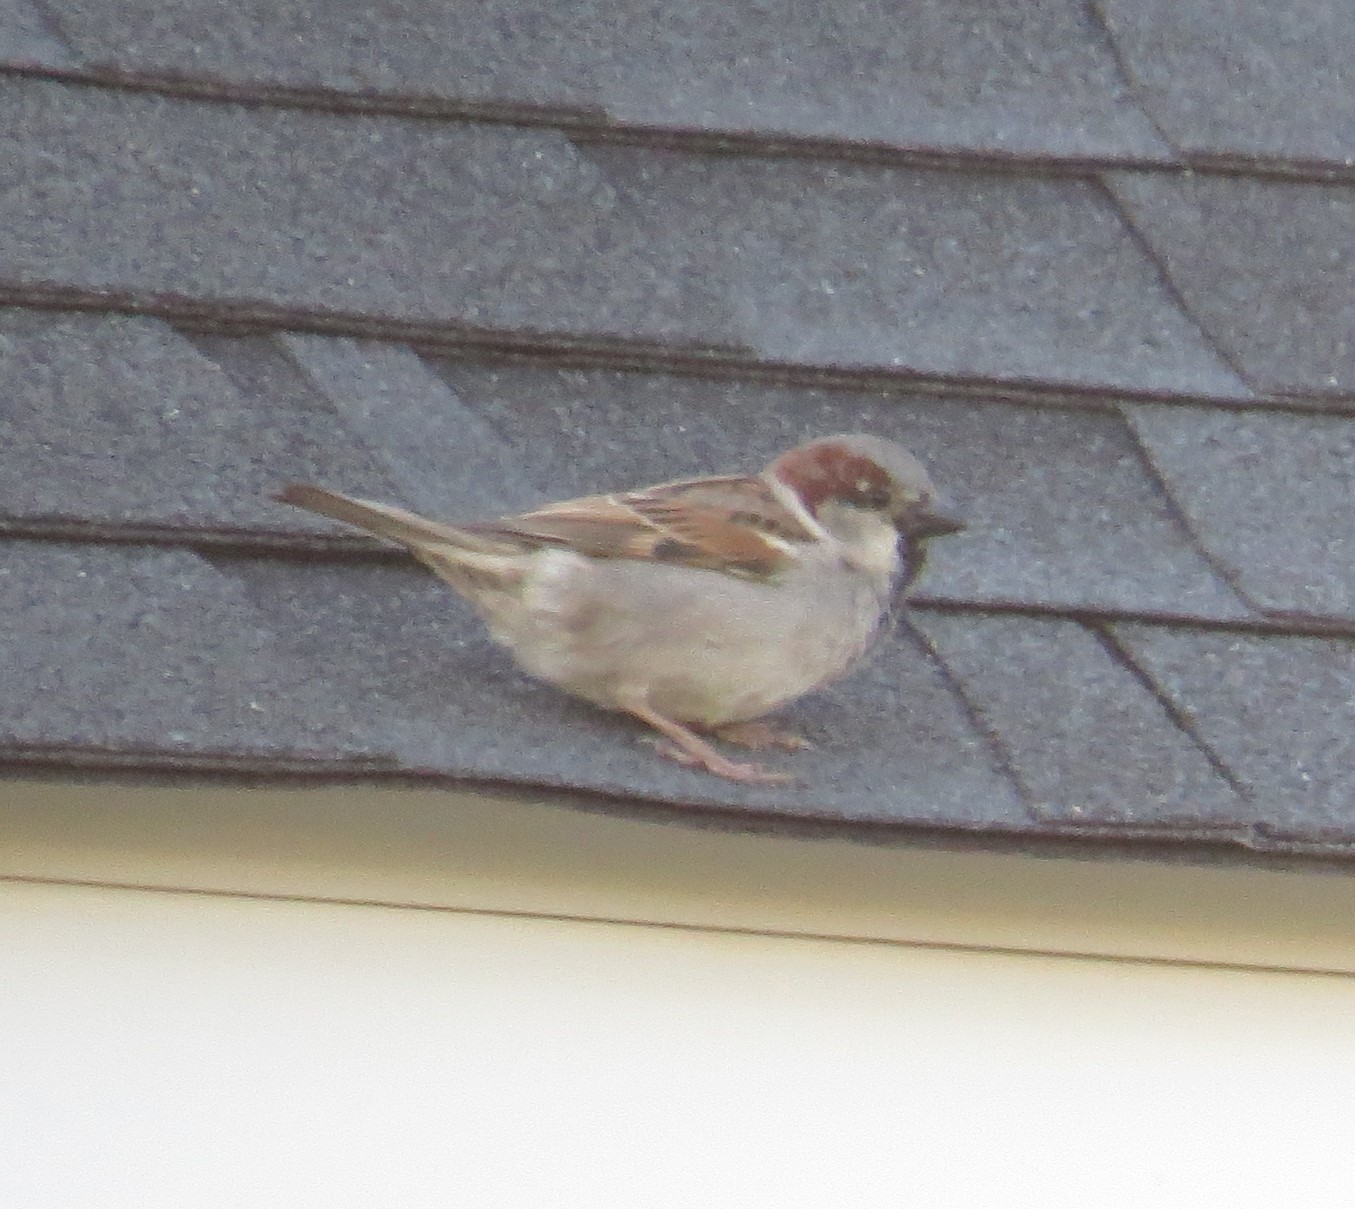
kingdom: Animalia
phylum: Chordata
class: Aves
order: Passeriformes
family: Passeridae
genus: Passer
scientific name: Passer domesticus
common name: House sparrow
